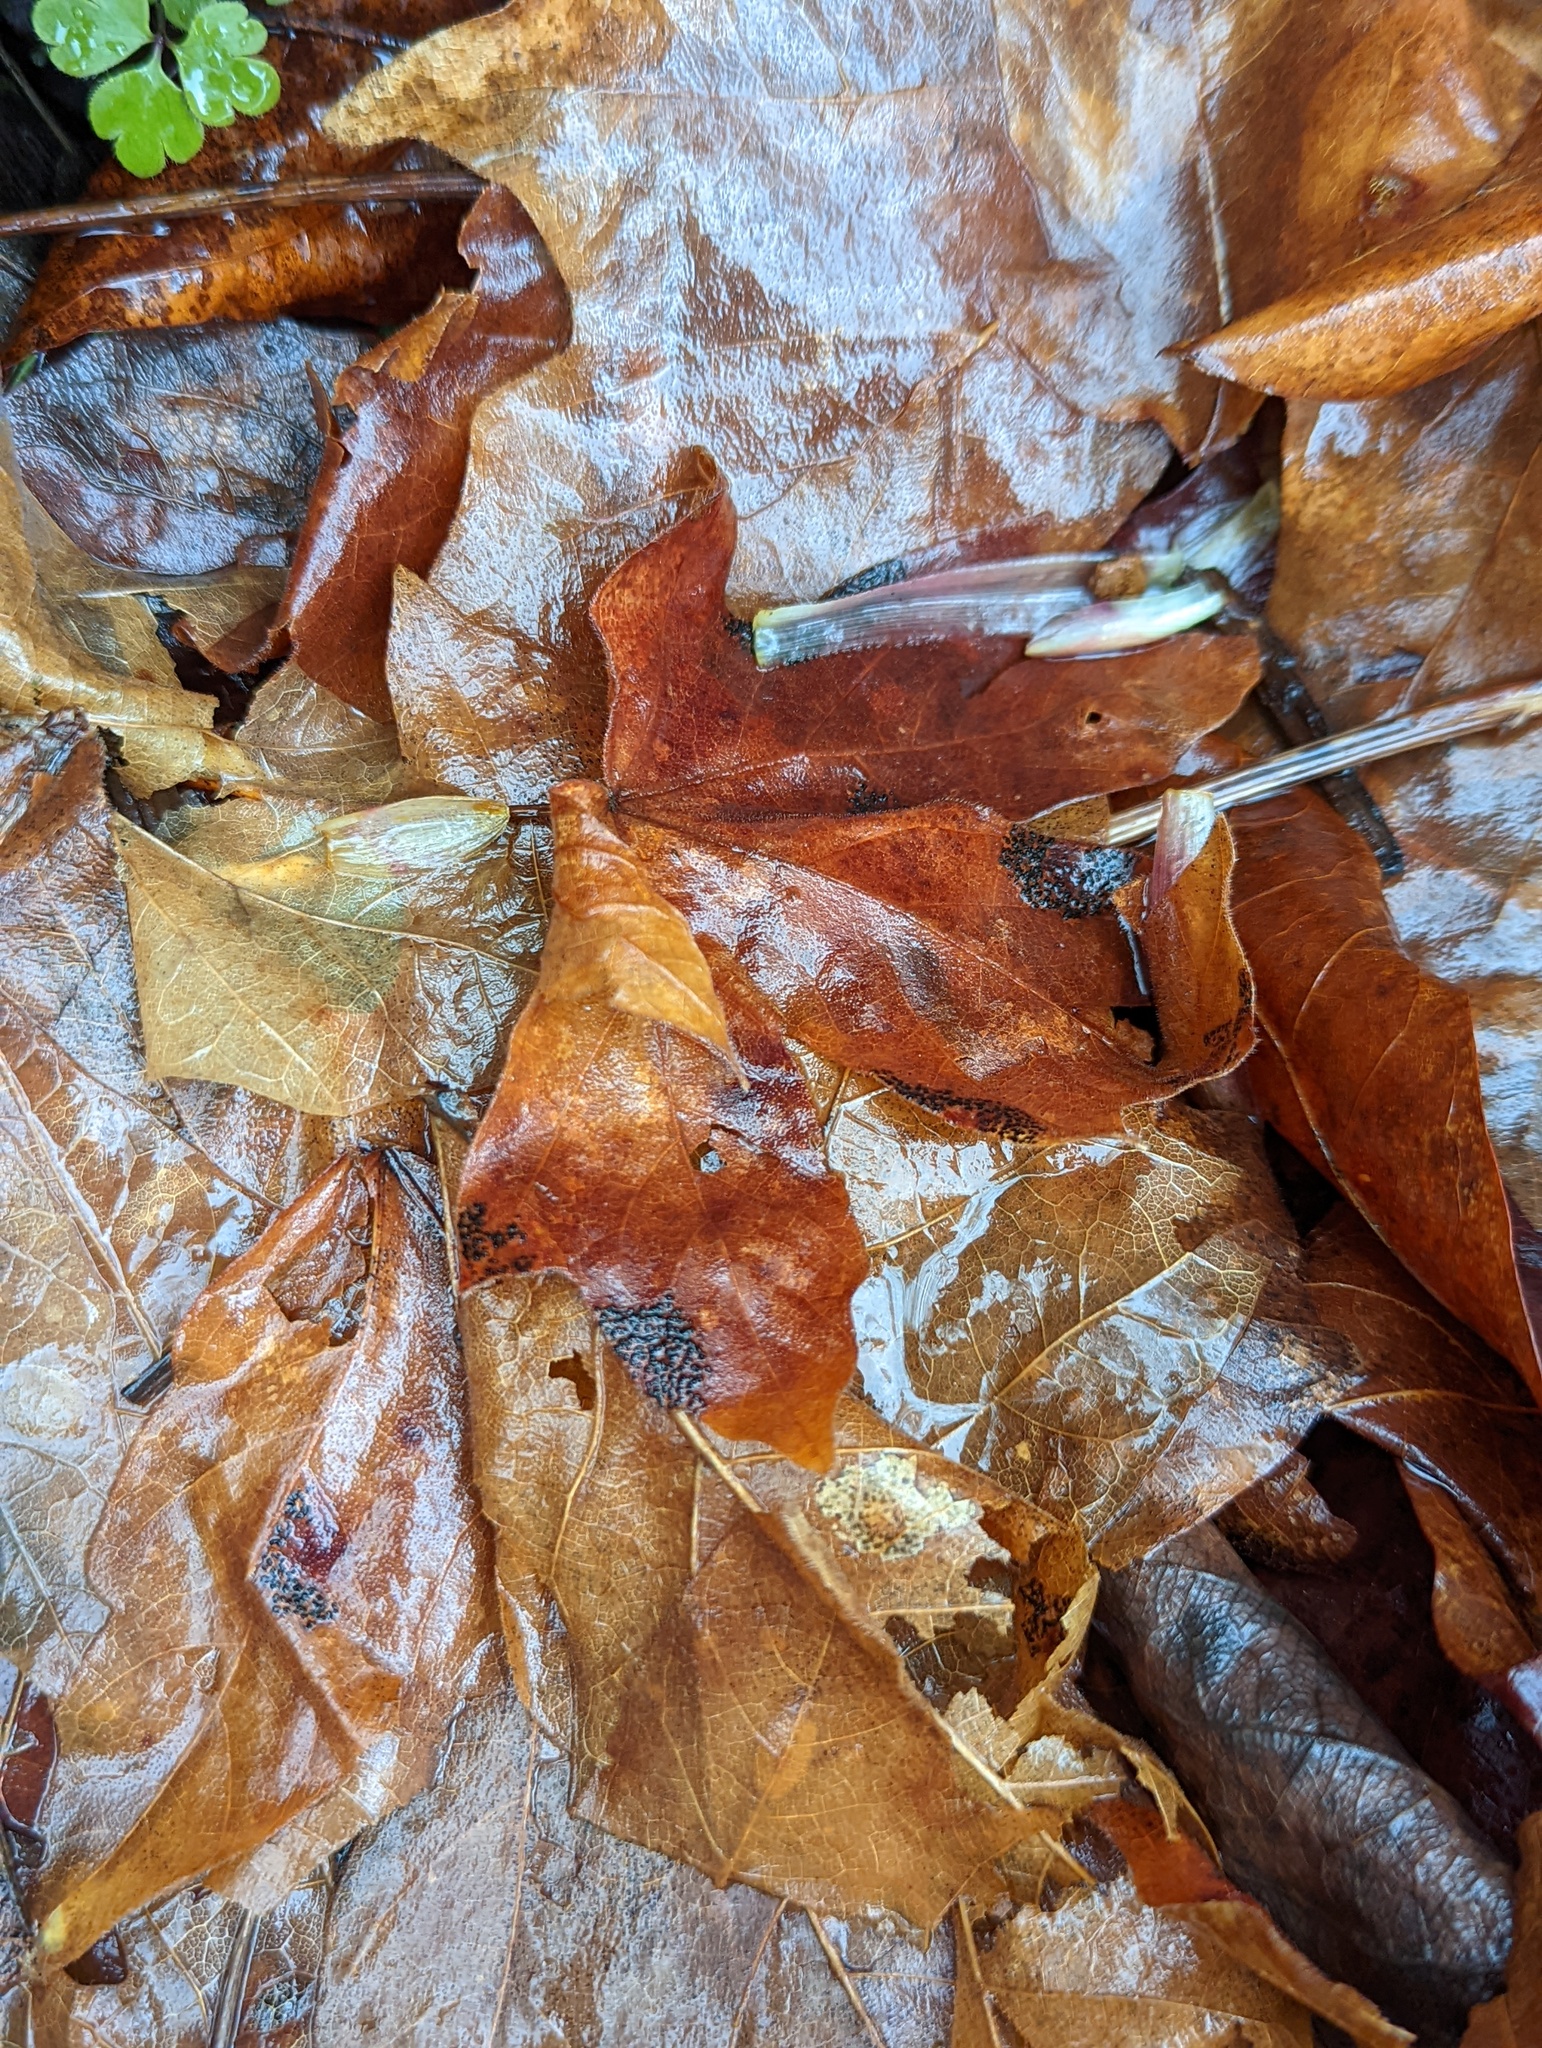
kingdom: Fungi
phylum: Ascomycota
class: Leotiomycetes
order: Rhytismatales
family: Rhytismataceae
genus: Rhytisma
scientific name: Rhytisma punctatum
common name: Speckled tar spot
